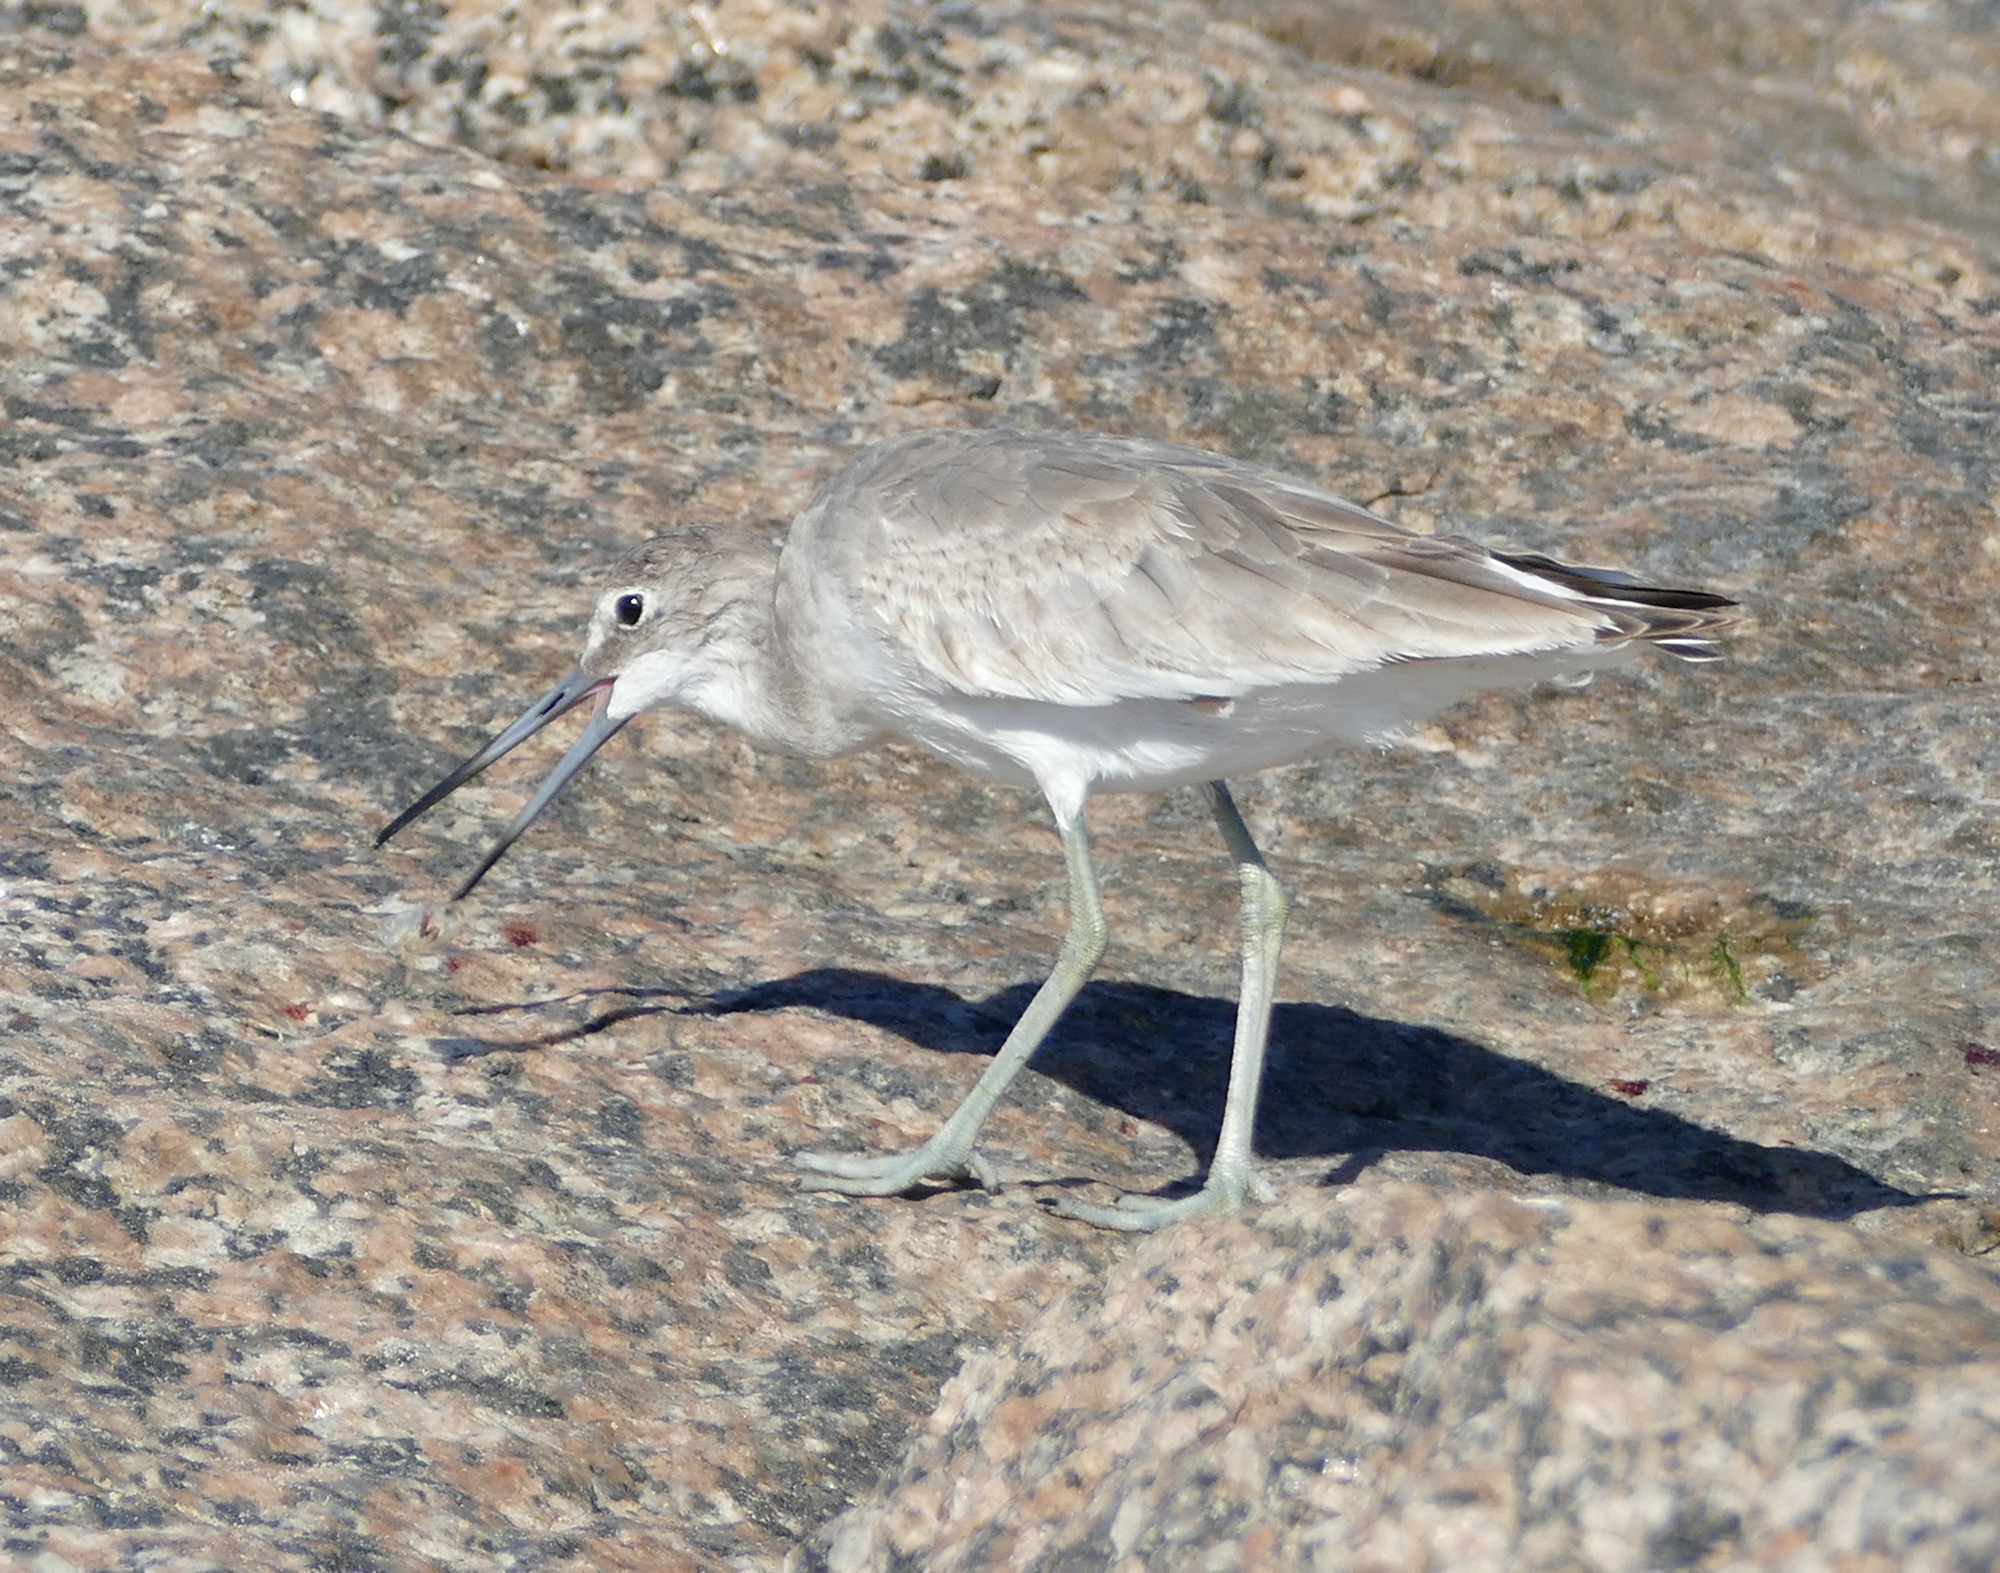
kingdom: Animalia
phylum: Chordata
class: Aves
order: Charadriiformes
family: Scolopacidae
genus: Tringa
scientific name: Tringa semipalmata
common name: Willet
